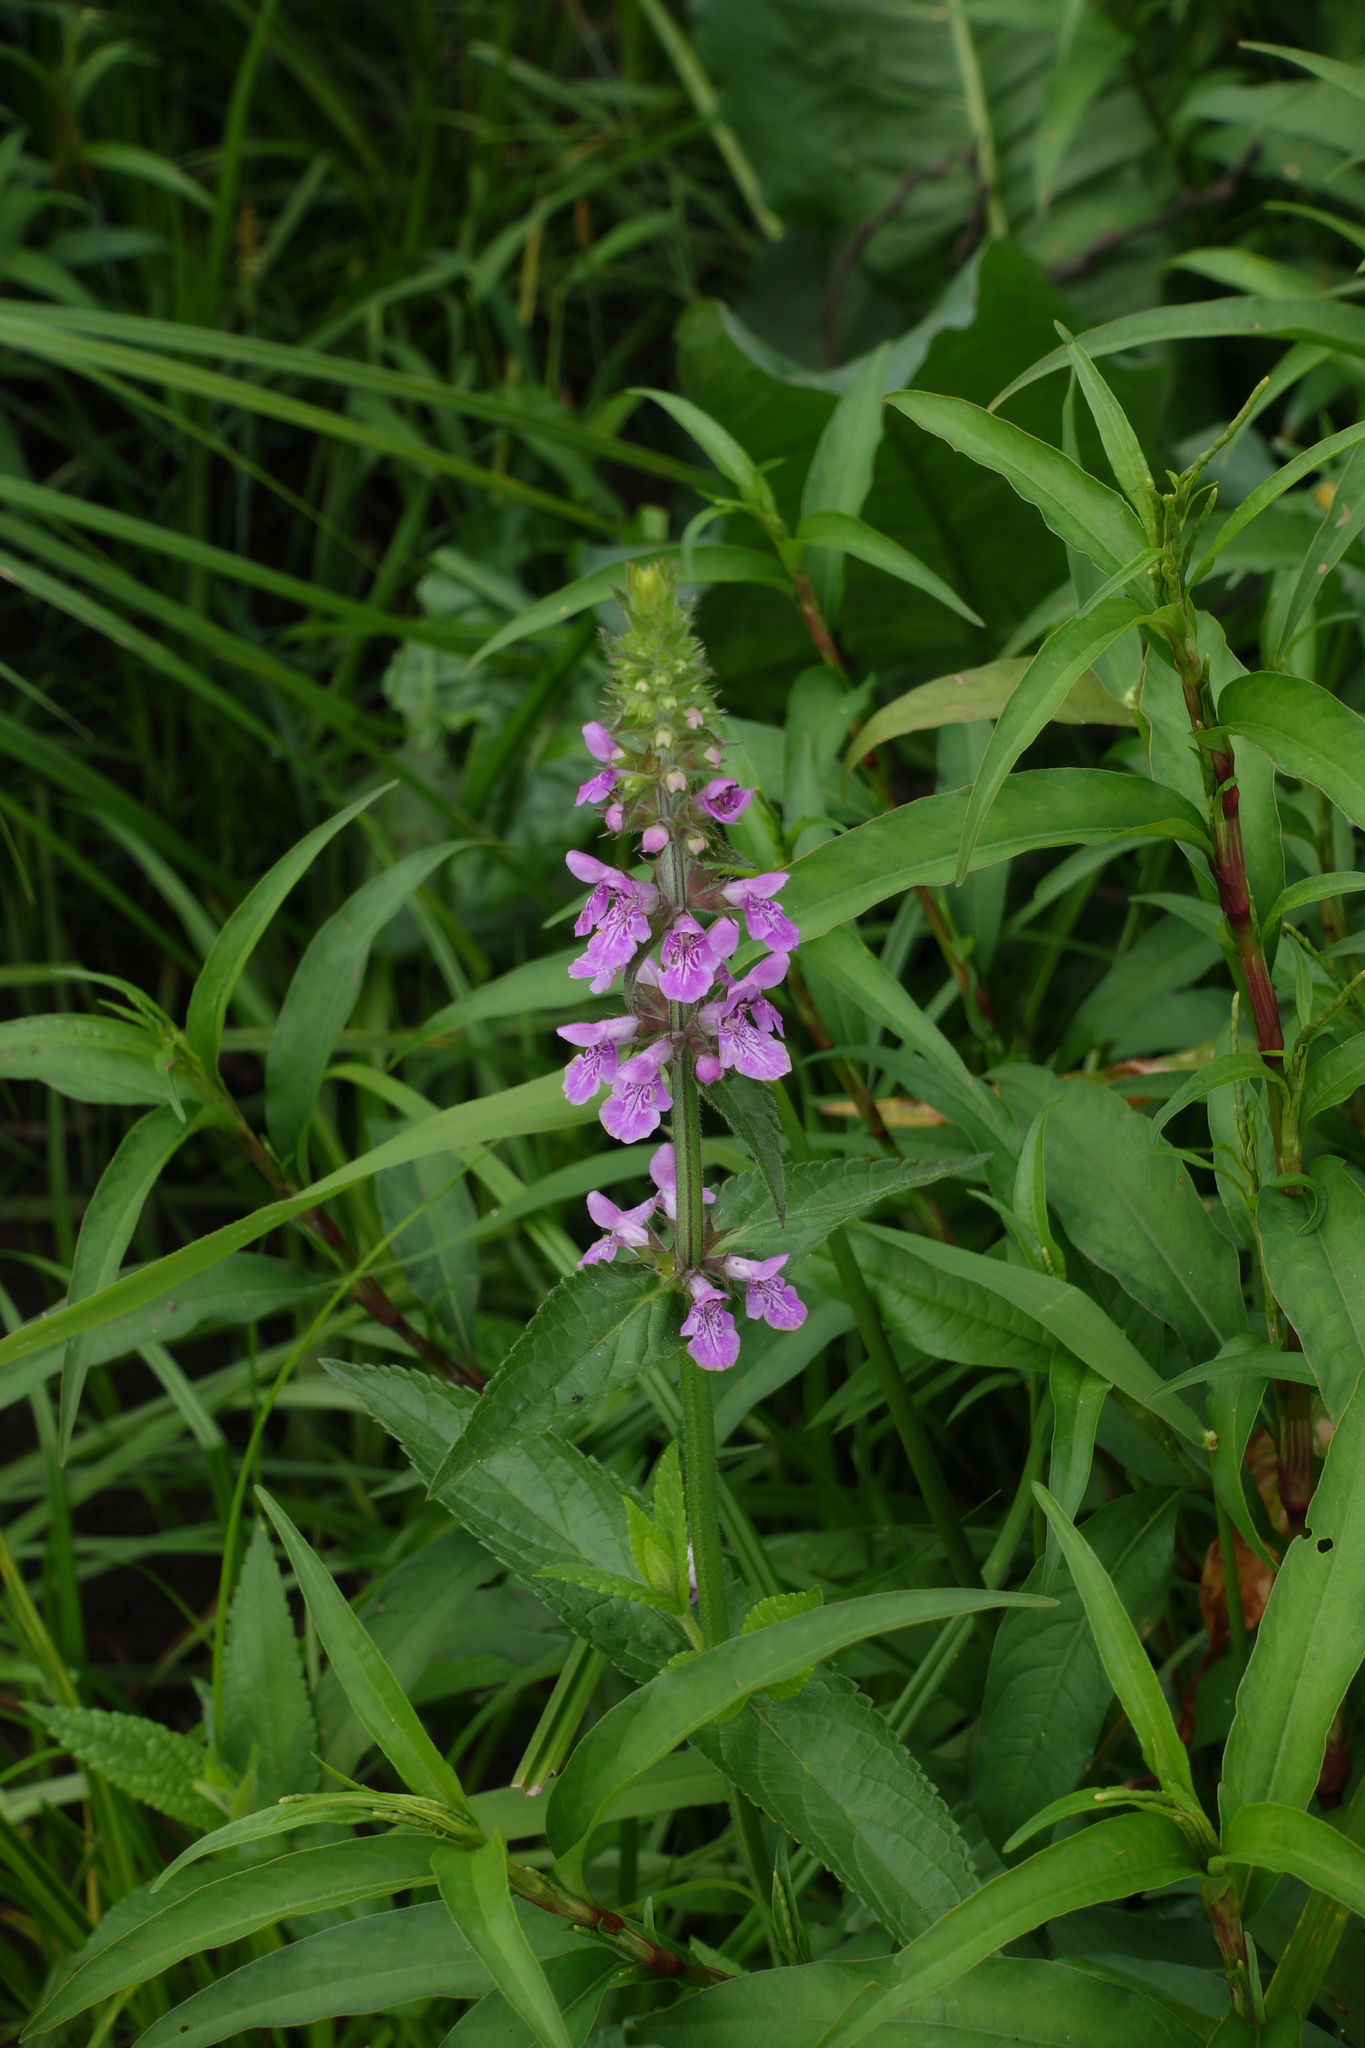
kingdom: Plantae
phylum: Tracheophyta
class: Magnoliopsida
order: Lamiales
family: Lamiaceae
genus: Stachys
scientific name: Stachys palustris
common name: Marsh woundwort
